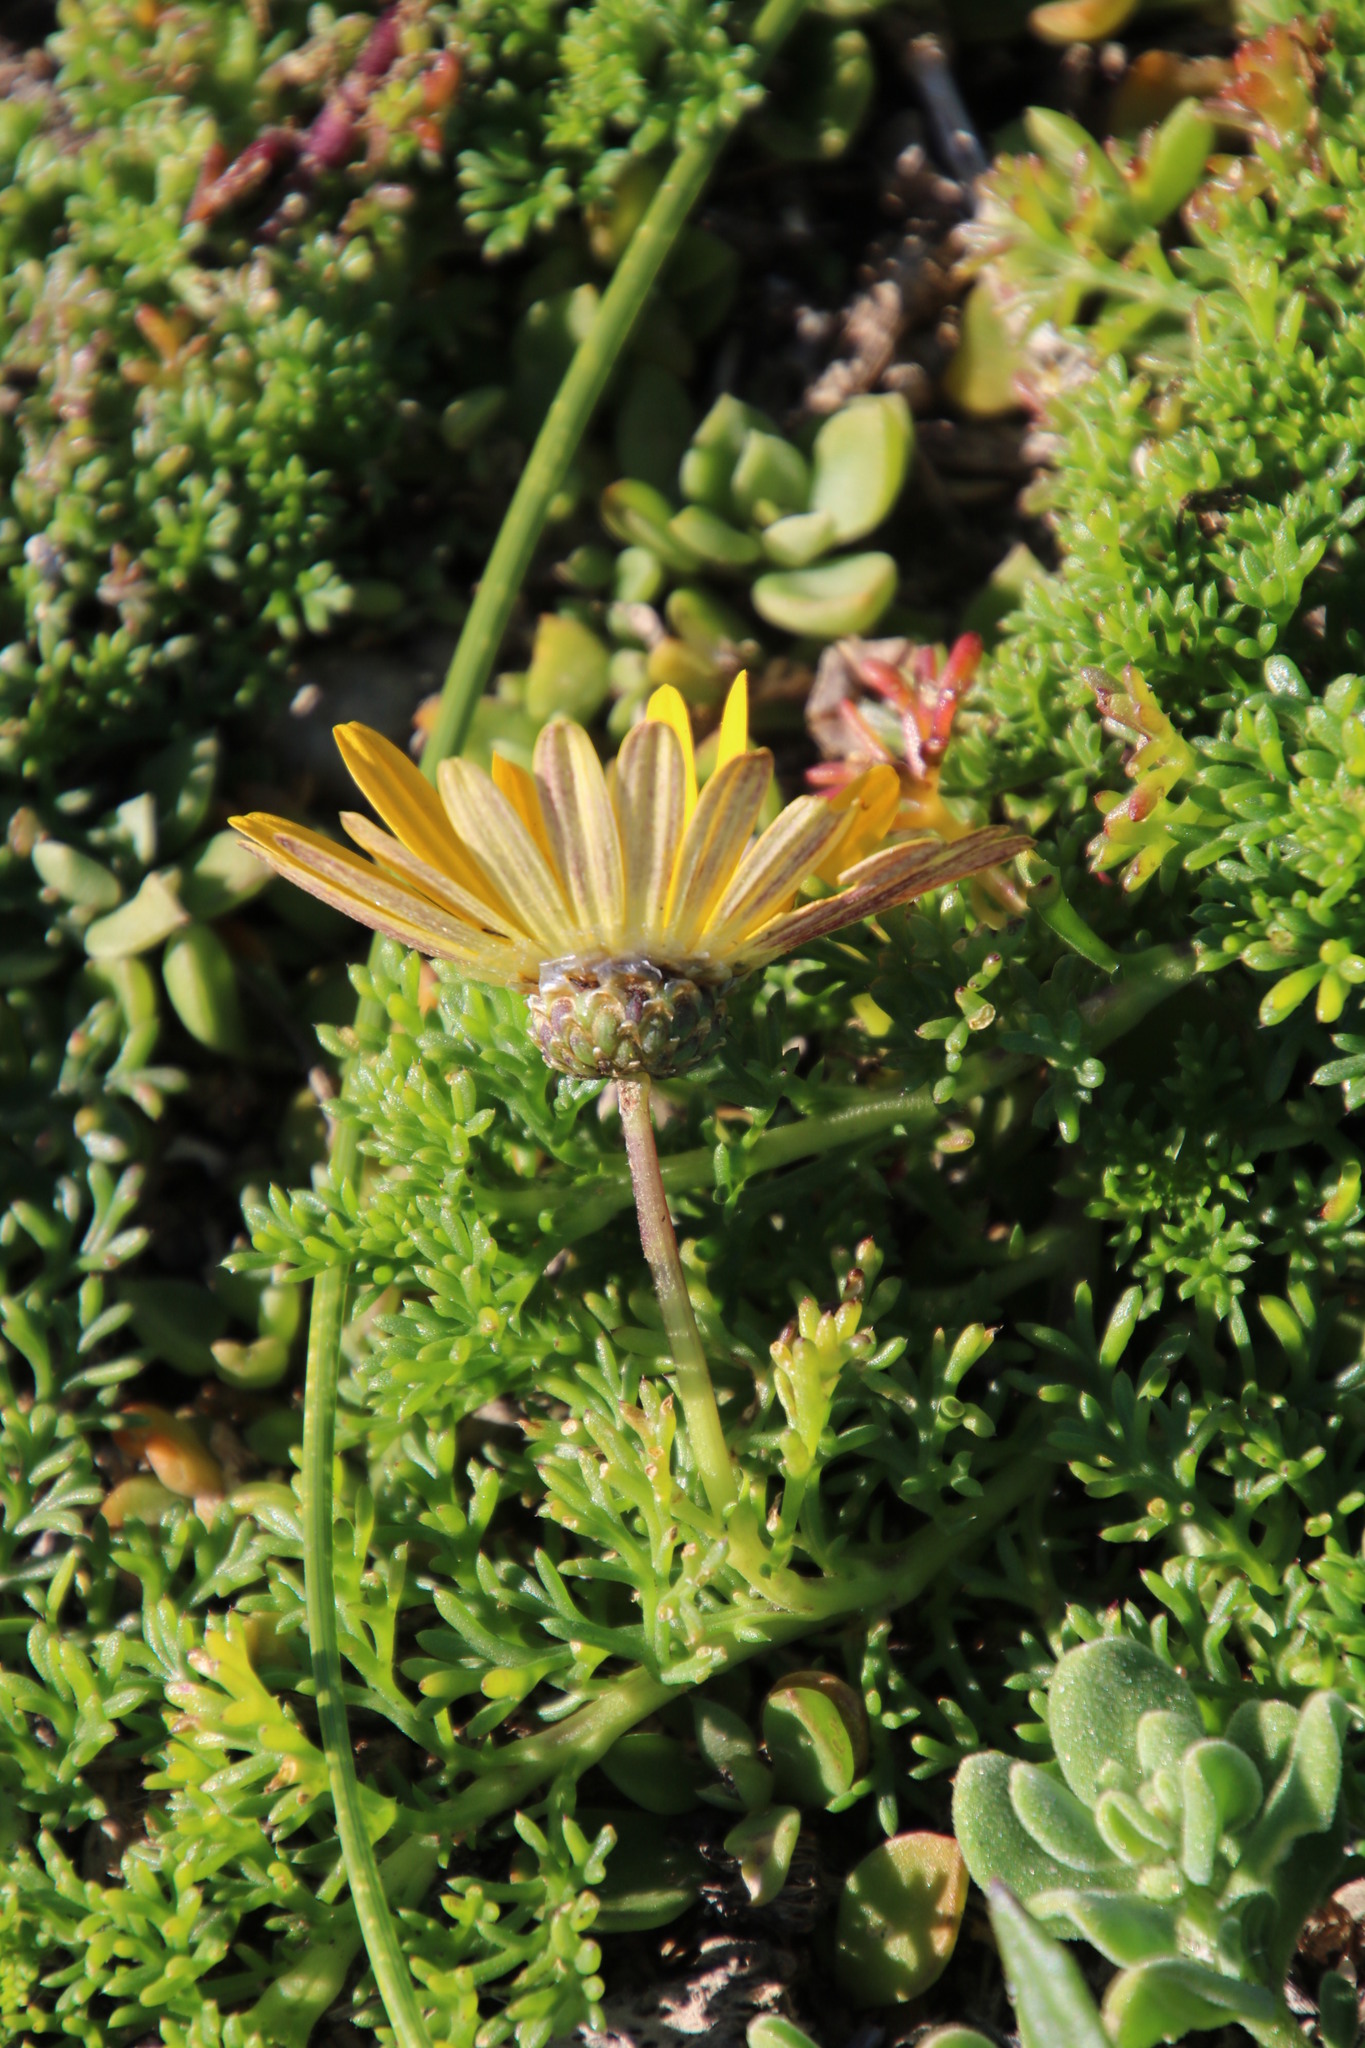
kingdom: Plantae
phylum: Tracheophyta
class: Magnoliopsida
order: Asterales
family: Asteraceae
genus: Ursinia
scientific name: Ursinia anthemoides
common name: Ursinia
